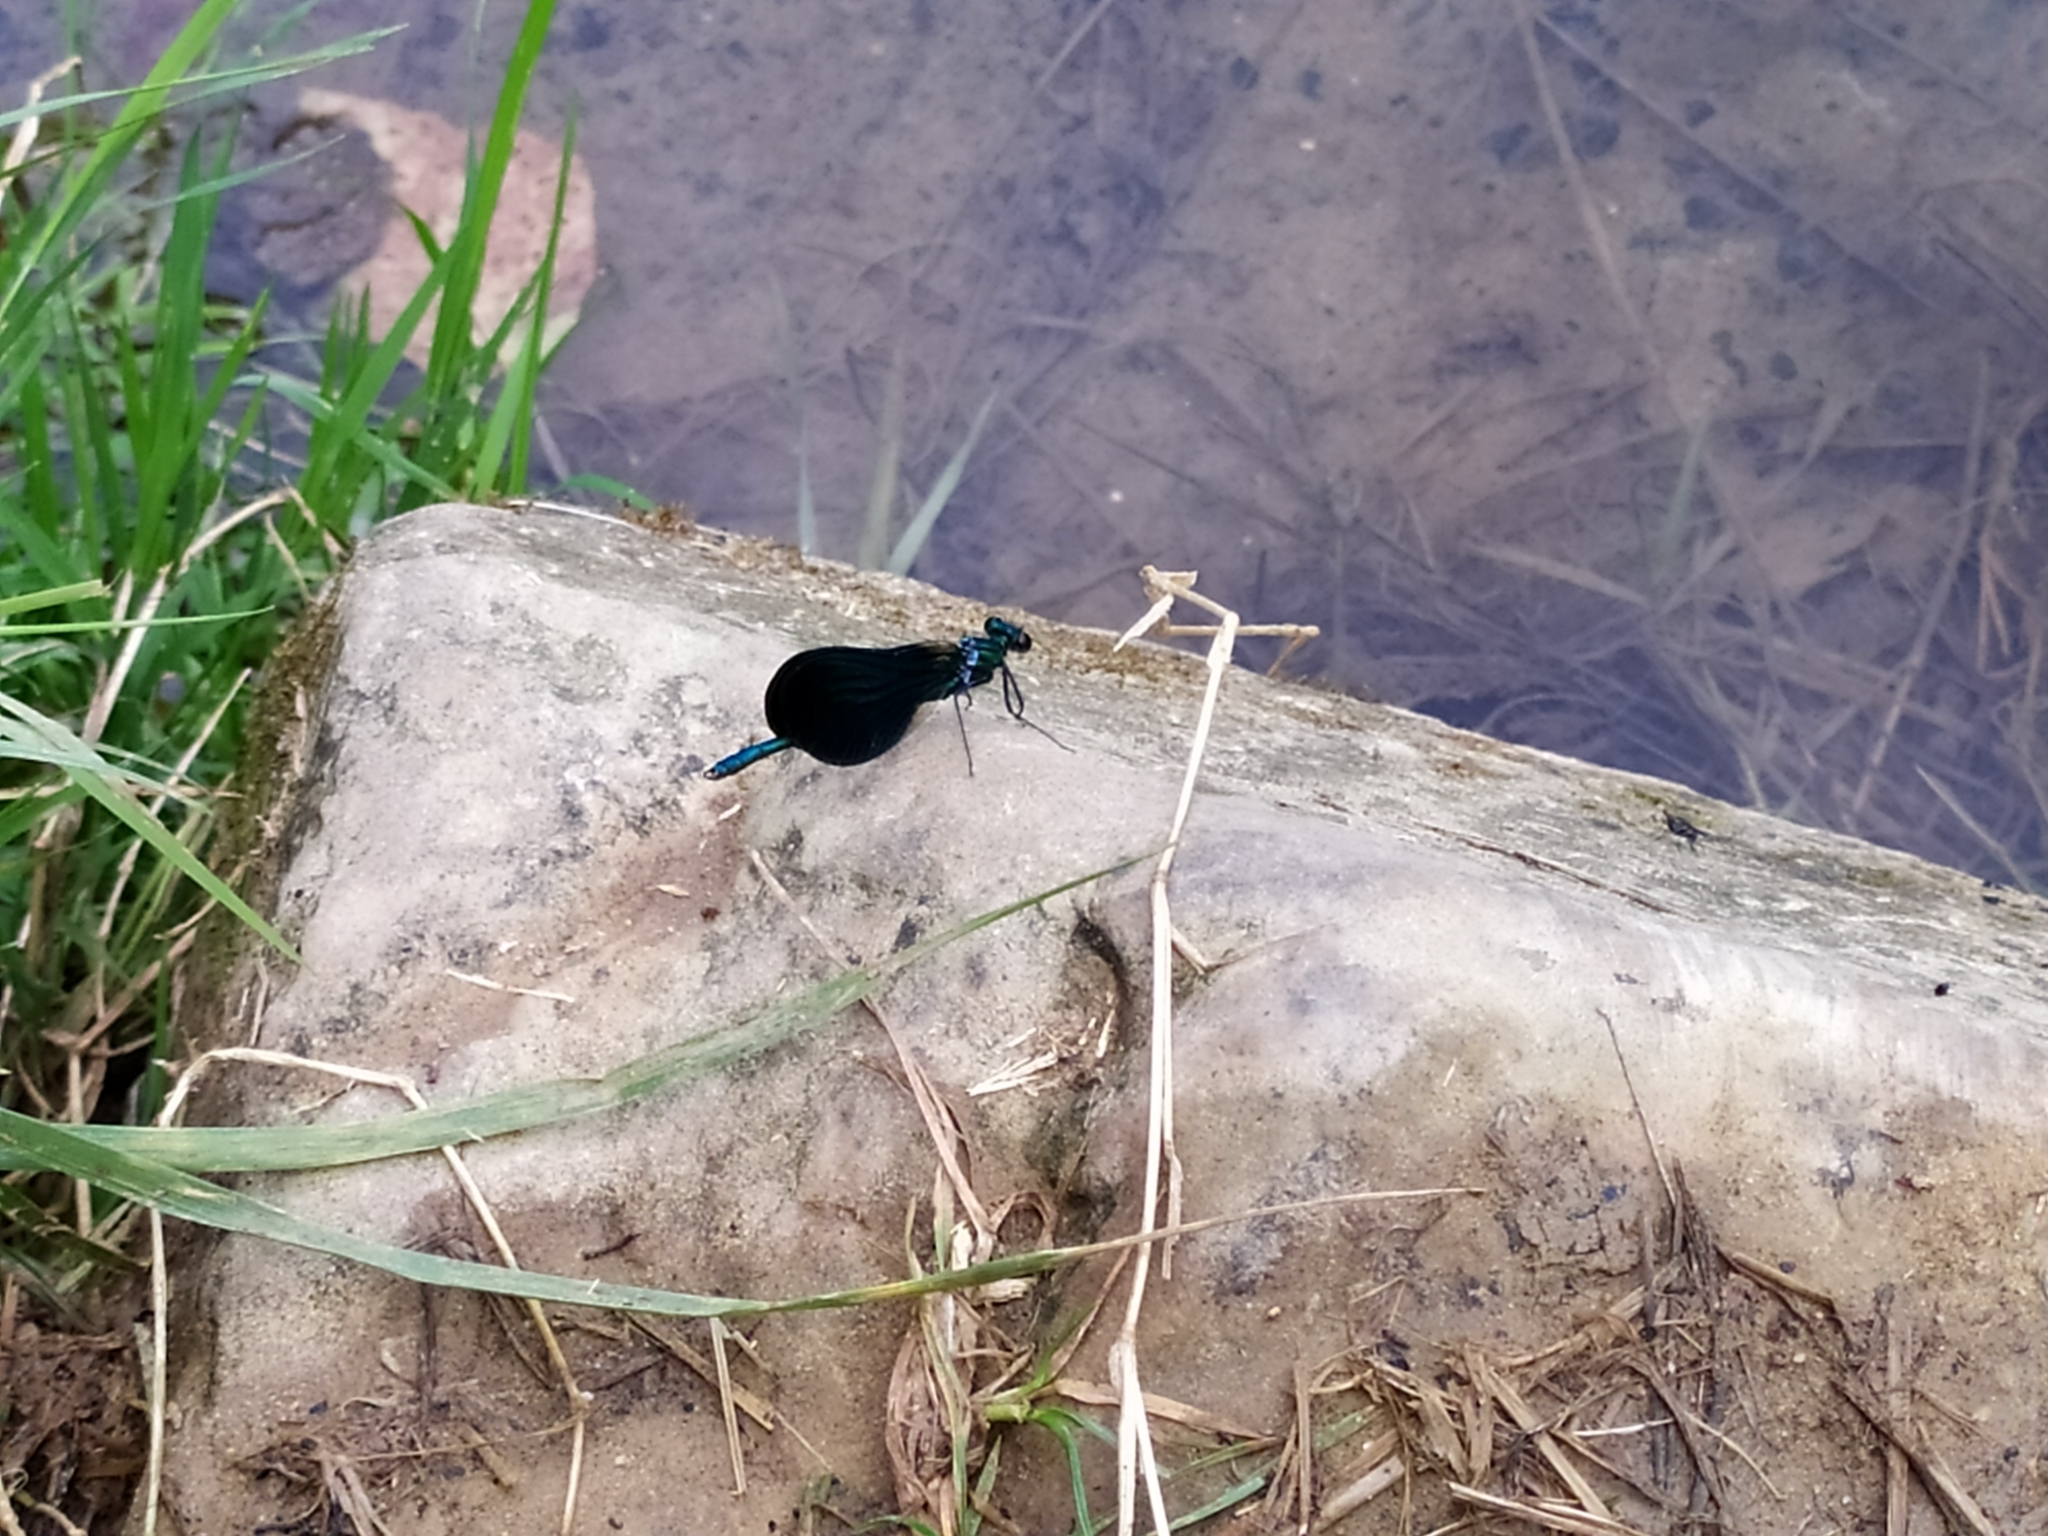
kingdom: Animalia
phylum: Arthropoda
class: Insecta
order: Odonata
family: Calopterygidae
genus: Calopteryx
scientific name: Calopteryx virgo
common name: Beautiful demoiselle
